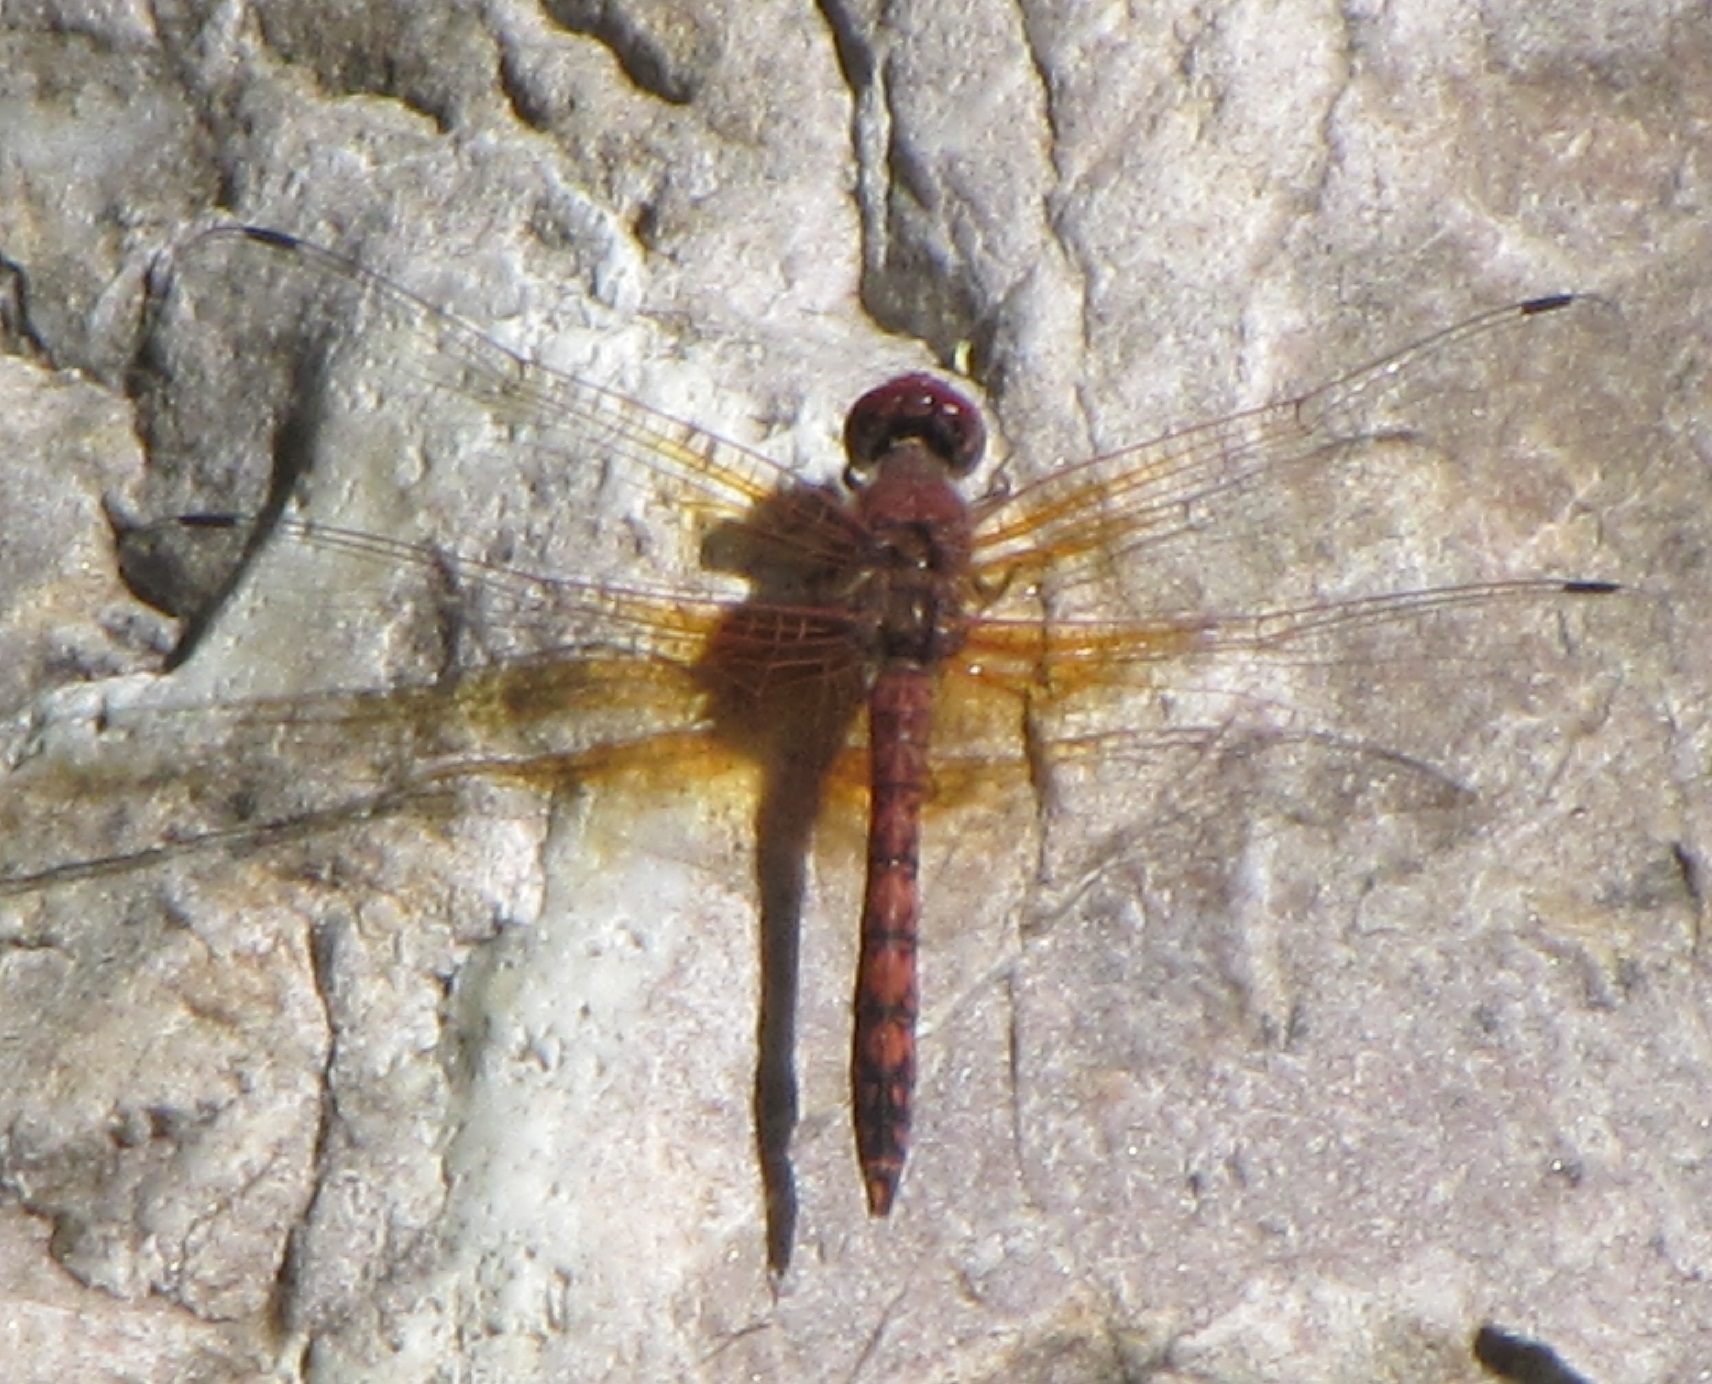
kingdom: Animalia
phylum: Arthropoda
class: Insecta
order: Odonata
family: Libellulidae
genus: Paltothemis
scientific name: Paltothemis lineatipes
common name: Red rock skimmer
